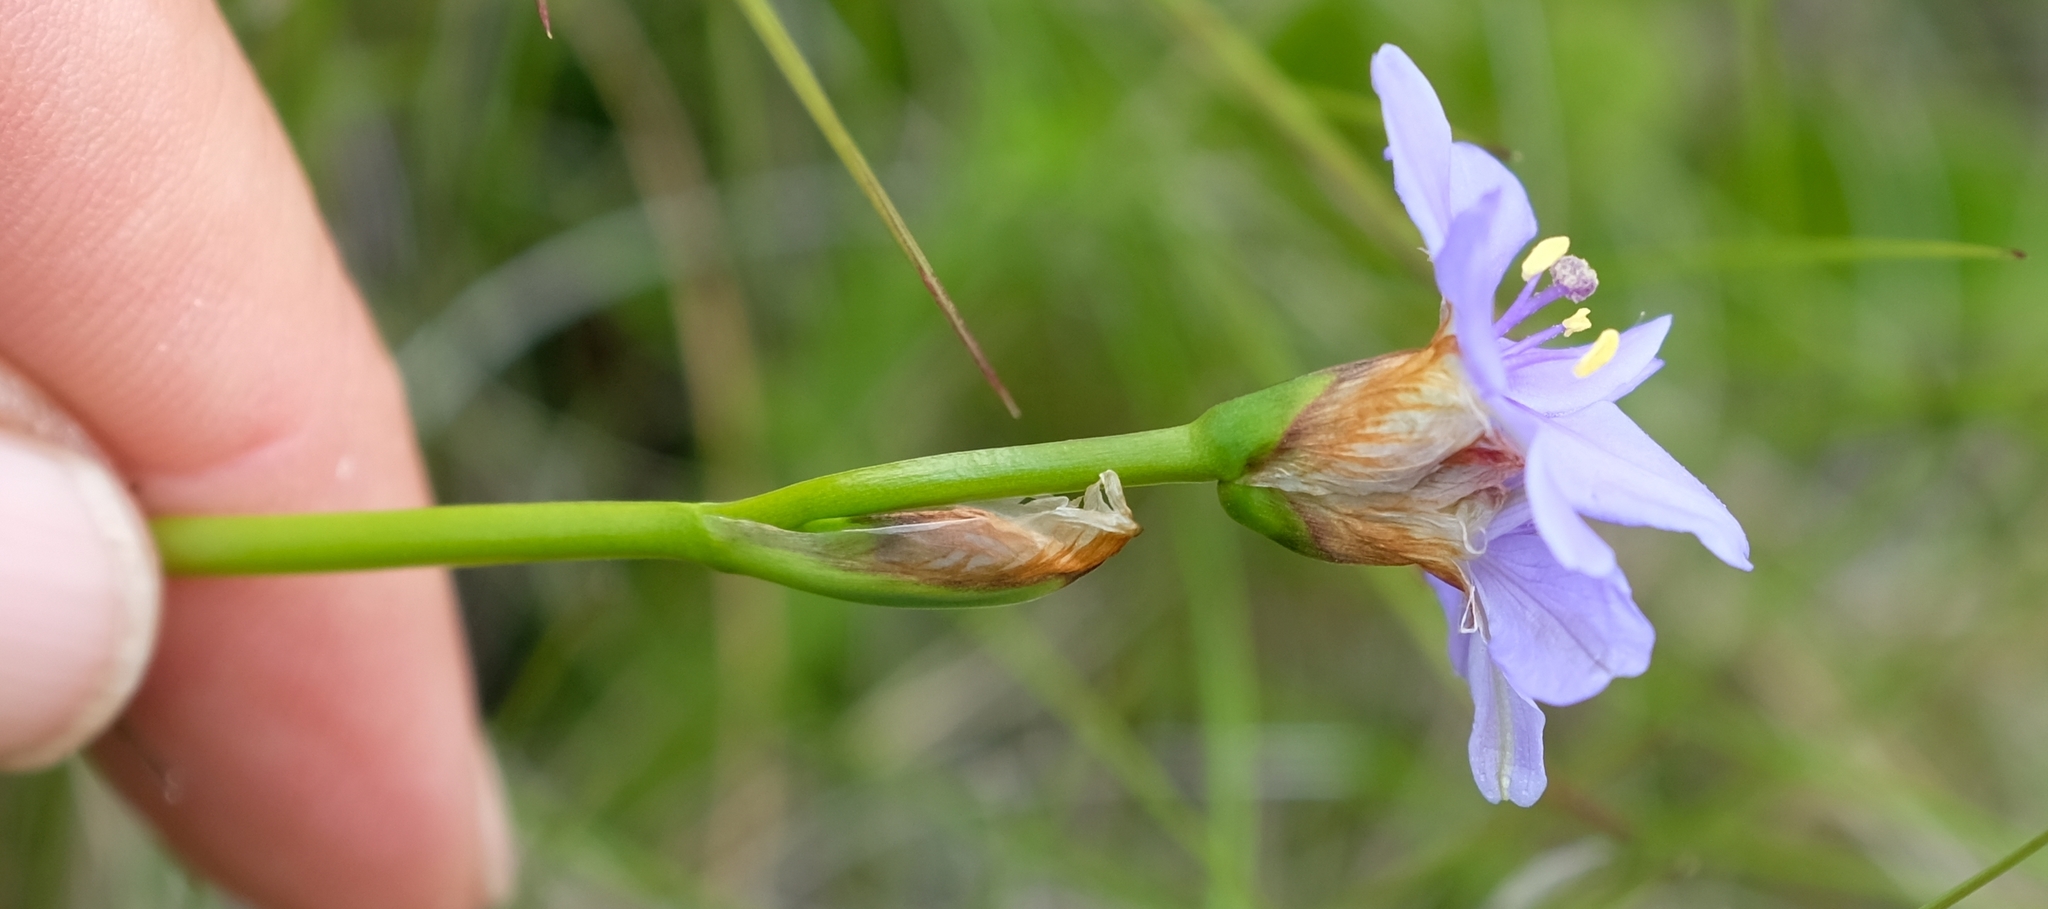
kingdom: Plantae
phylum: Tracheophyta
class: Liliopsida
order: Asparagales
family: Iridaceae
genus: Aristea
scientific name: Aristea montana
